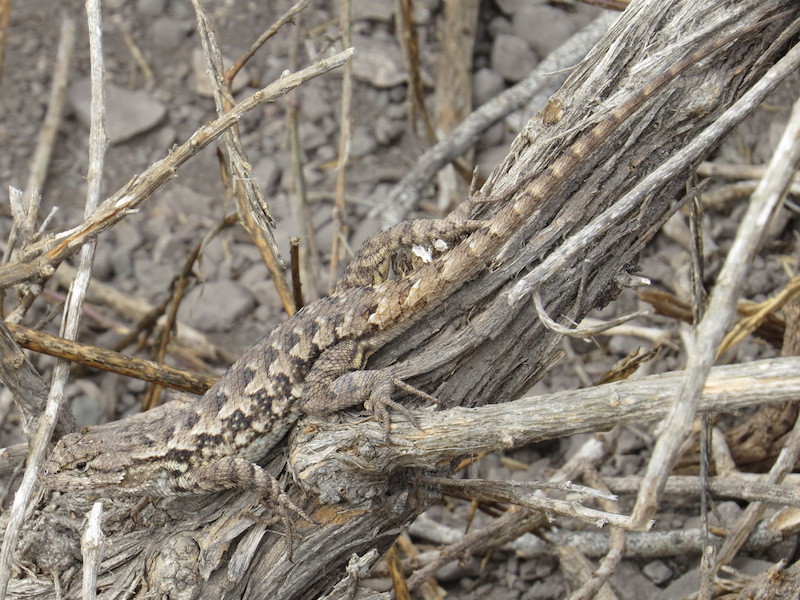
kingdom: Animalia
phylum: Chordata
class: Squamata
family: Phrynosomatidae
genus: Sceloporus
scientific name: Sceloporus occidentalis
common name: Western fence lizard
